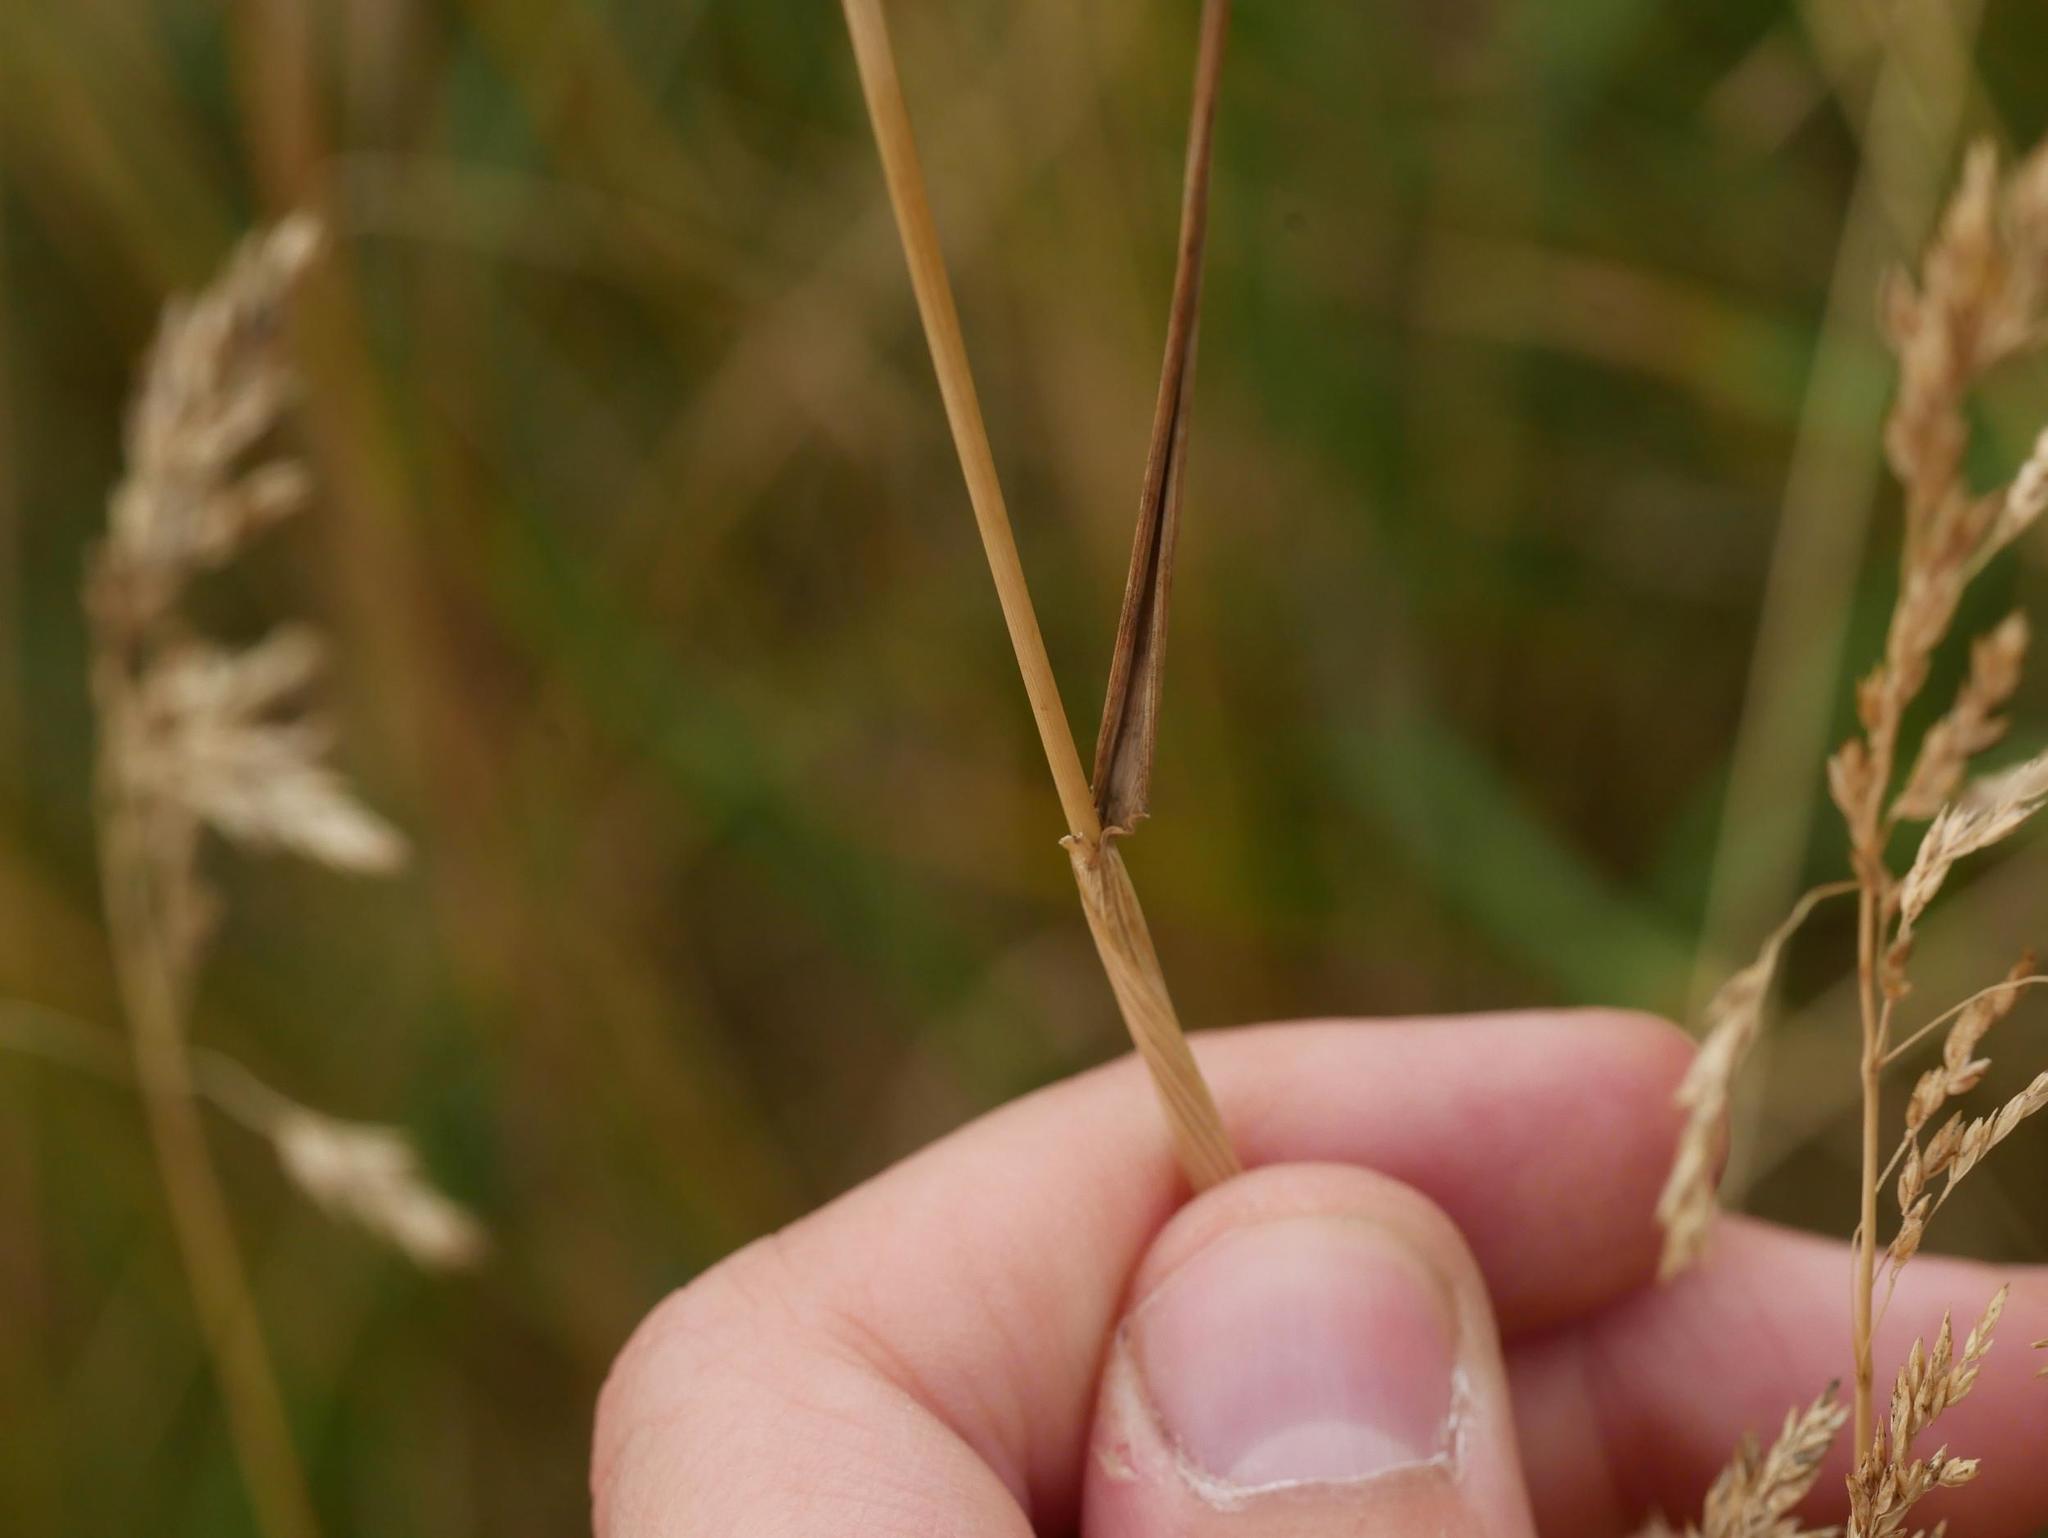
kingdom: Plantae
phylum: Tracheophyta
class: Liliopsida
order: Poales
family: Poaceae
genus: Alopecurus
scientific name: Alopecurus pratensis
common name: Meadow foxtail
